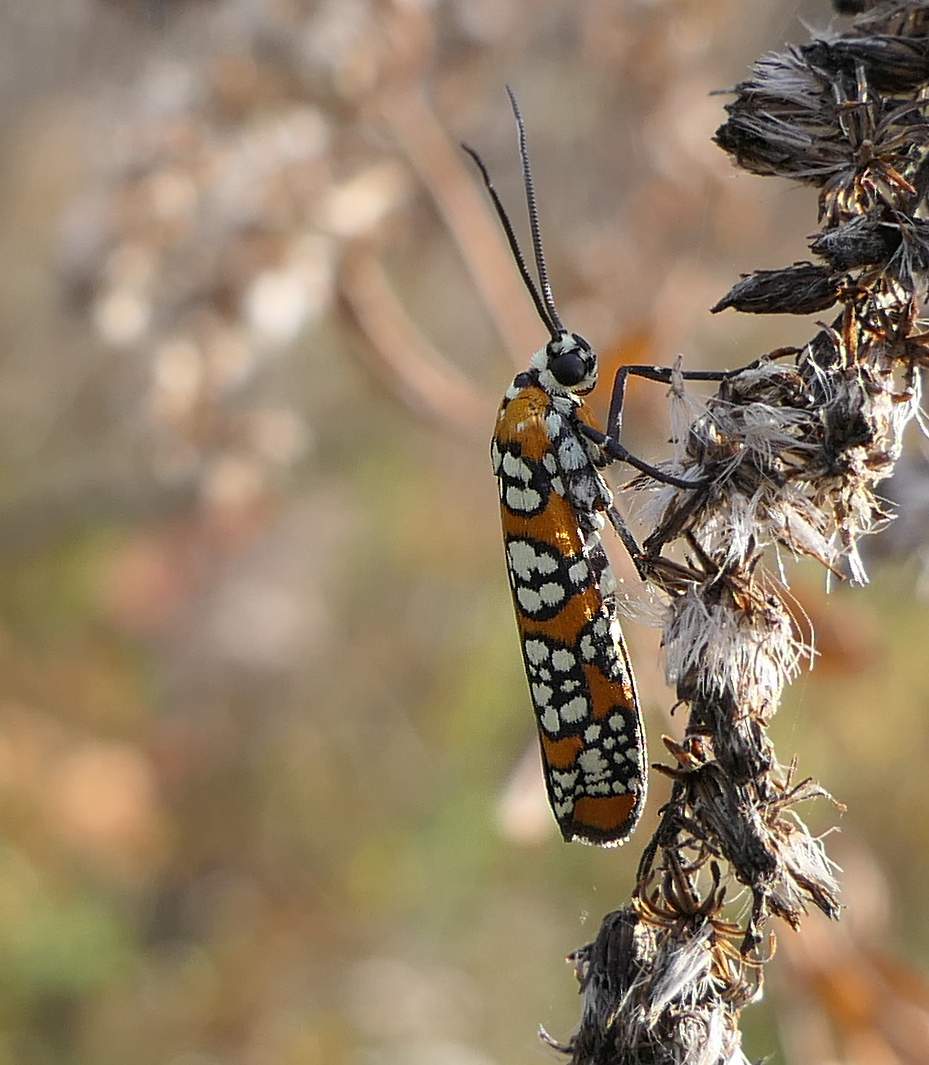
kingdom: Animalia
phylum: Arthropoda
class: Insecta
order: Lepidoptera
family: Attevidae
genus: Atteva
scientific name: Atteva punctella
